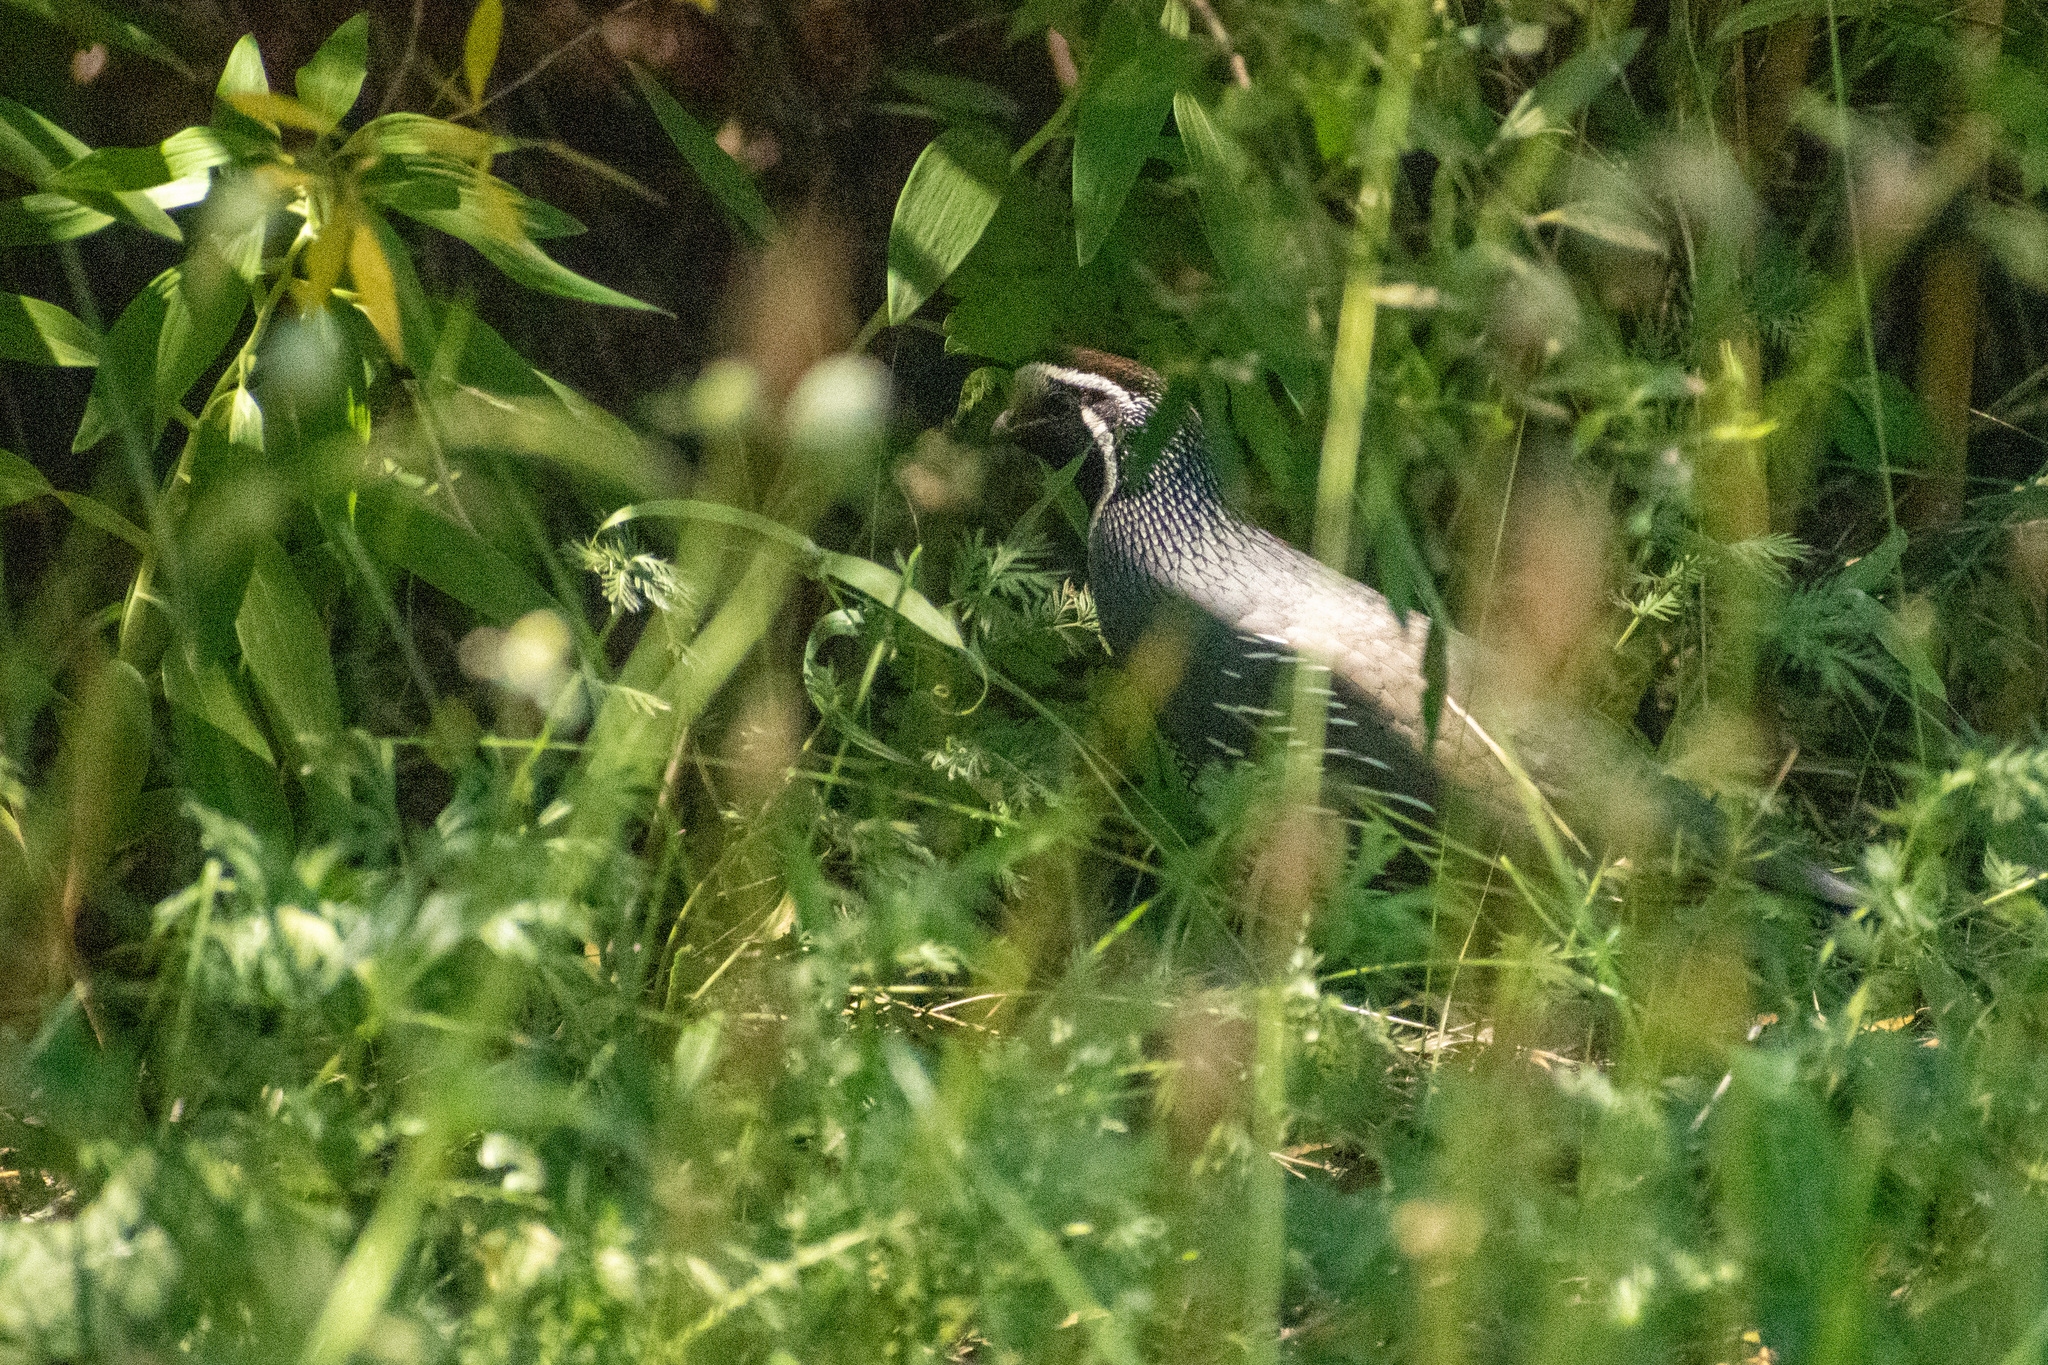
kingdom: Animalia
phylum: Chordata
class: Aves
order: Galliformes
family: Odontophoridae
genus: Callipepla
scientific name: Callipepla californica
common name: California quail
